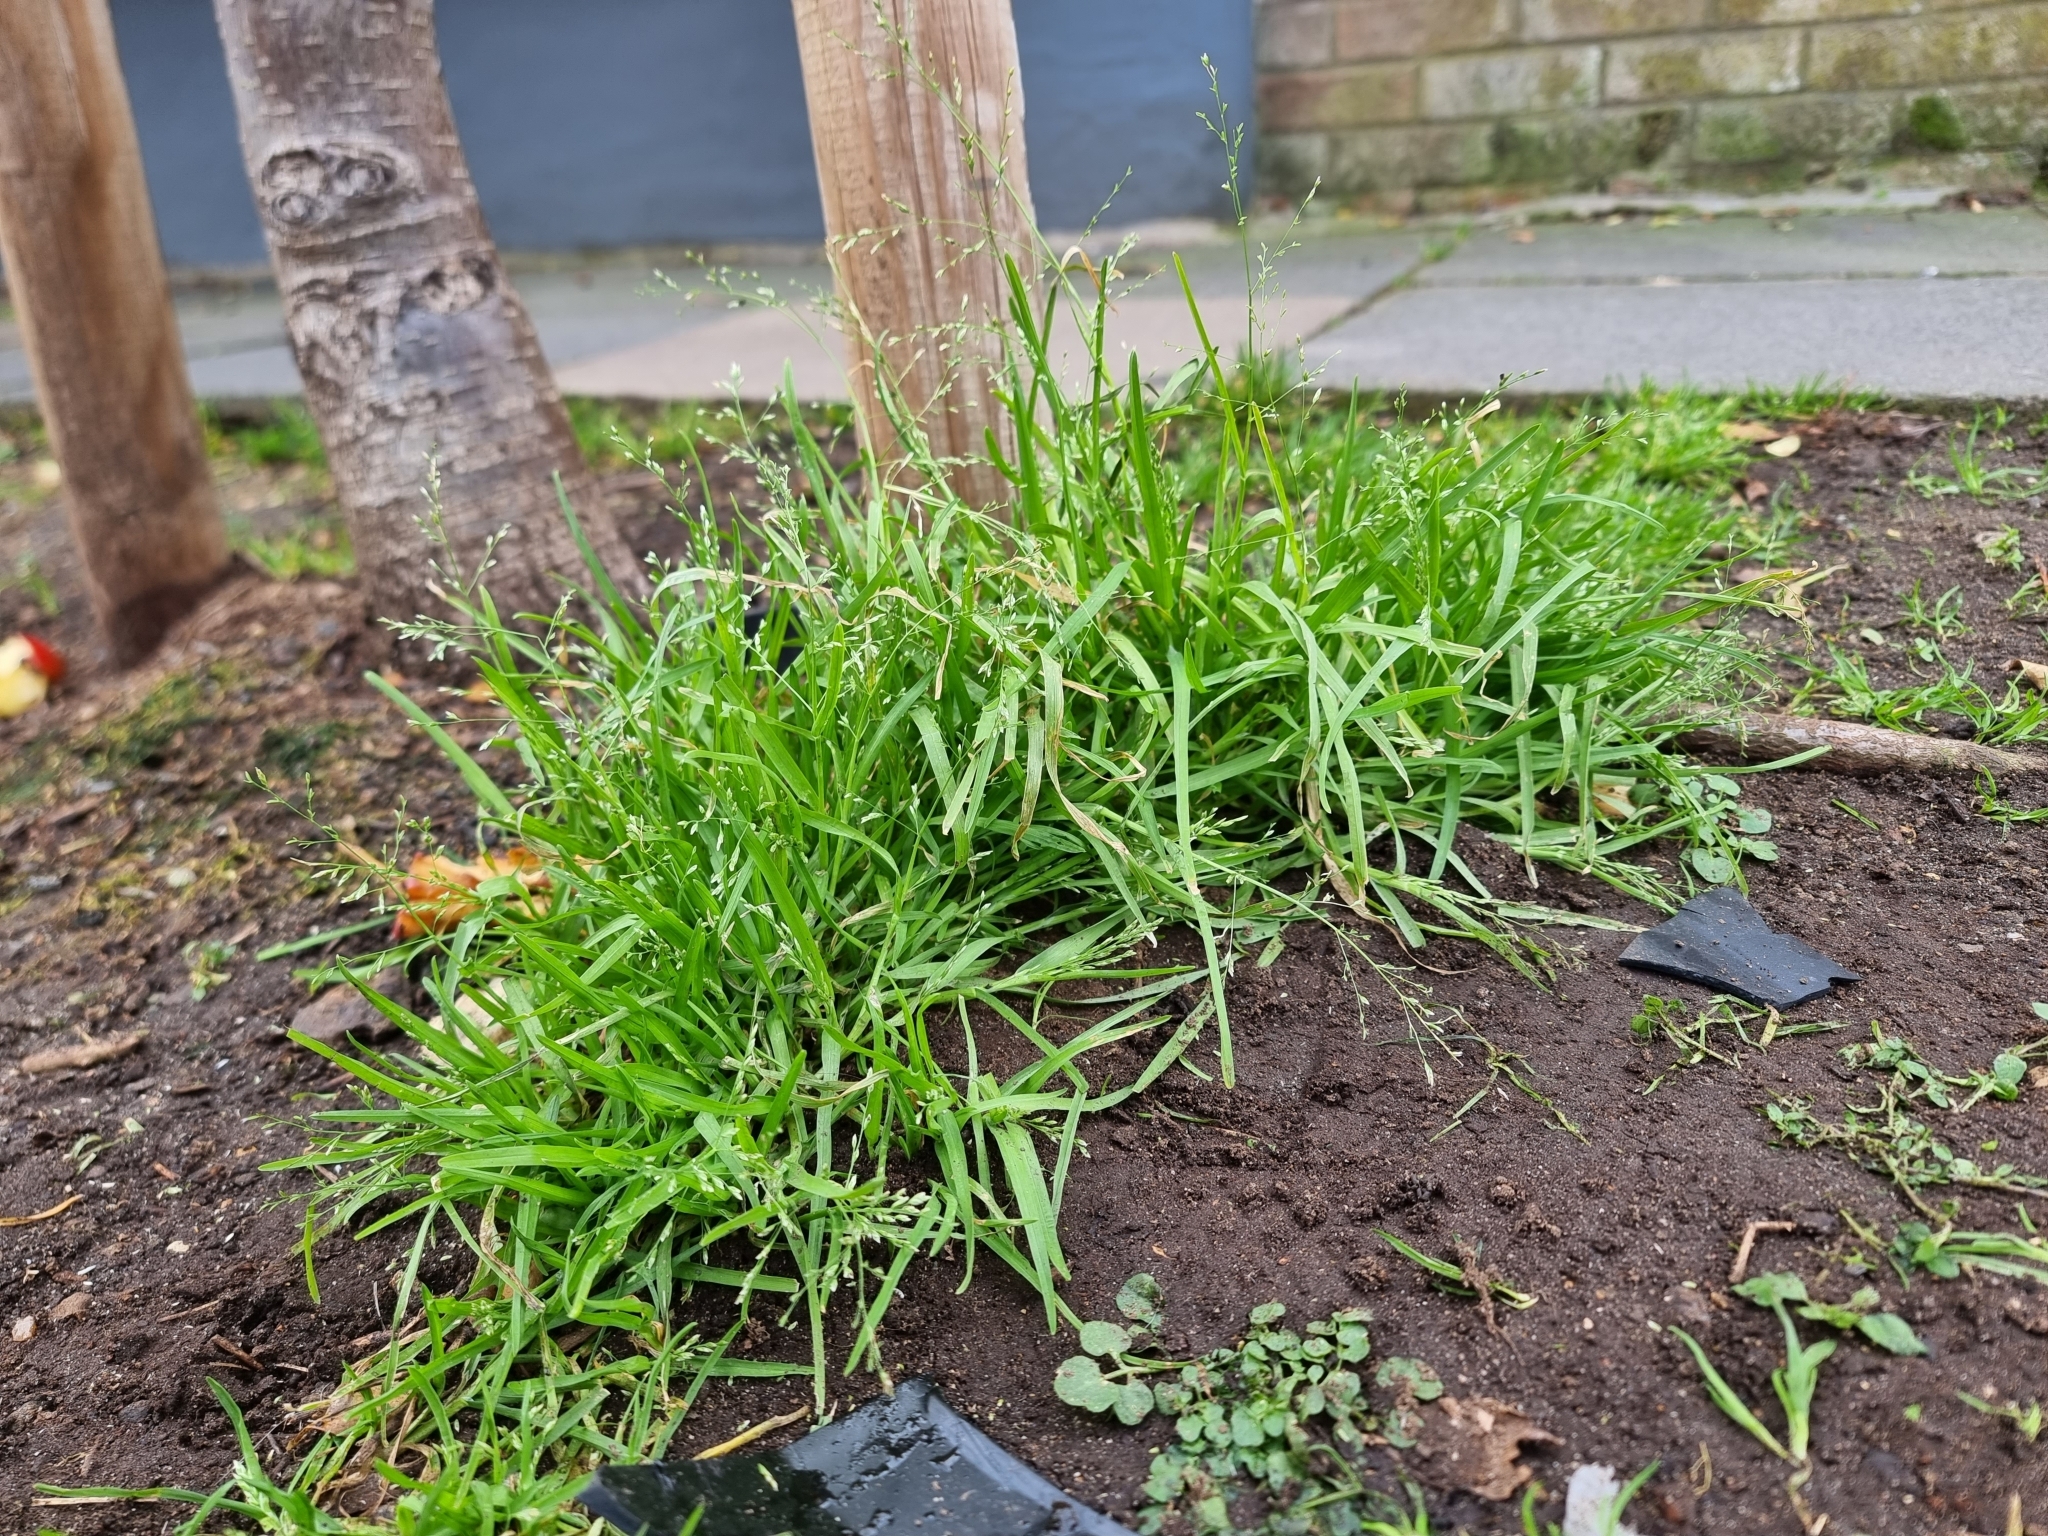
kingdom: Plantae
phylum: Tracheophyta
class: Liliopsida
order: Poales
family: Poaceae
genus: Poa
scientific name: Poa infirma
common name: Weak bluegrass
